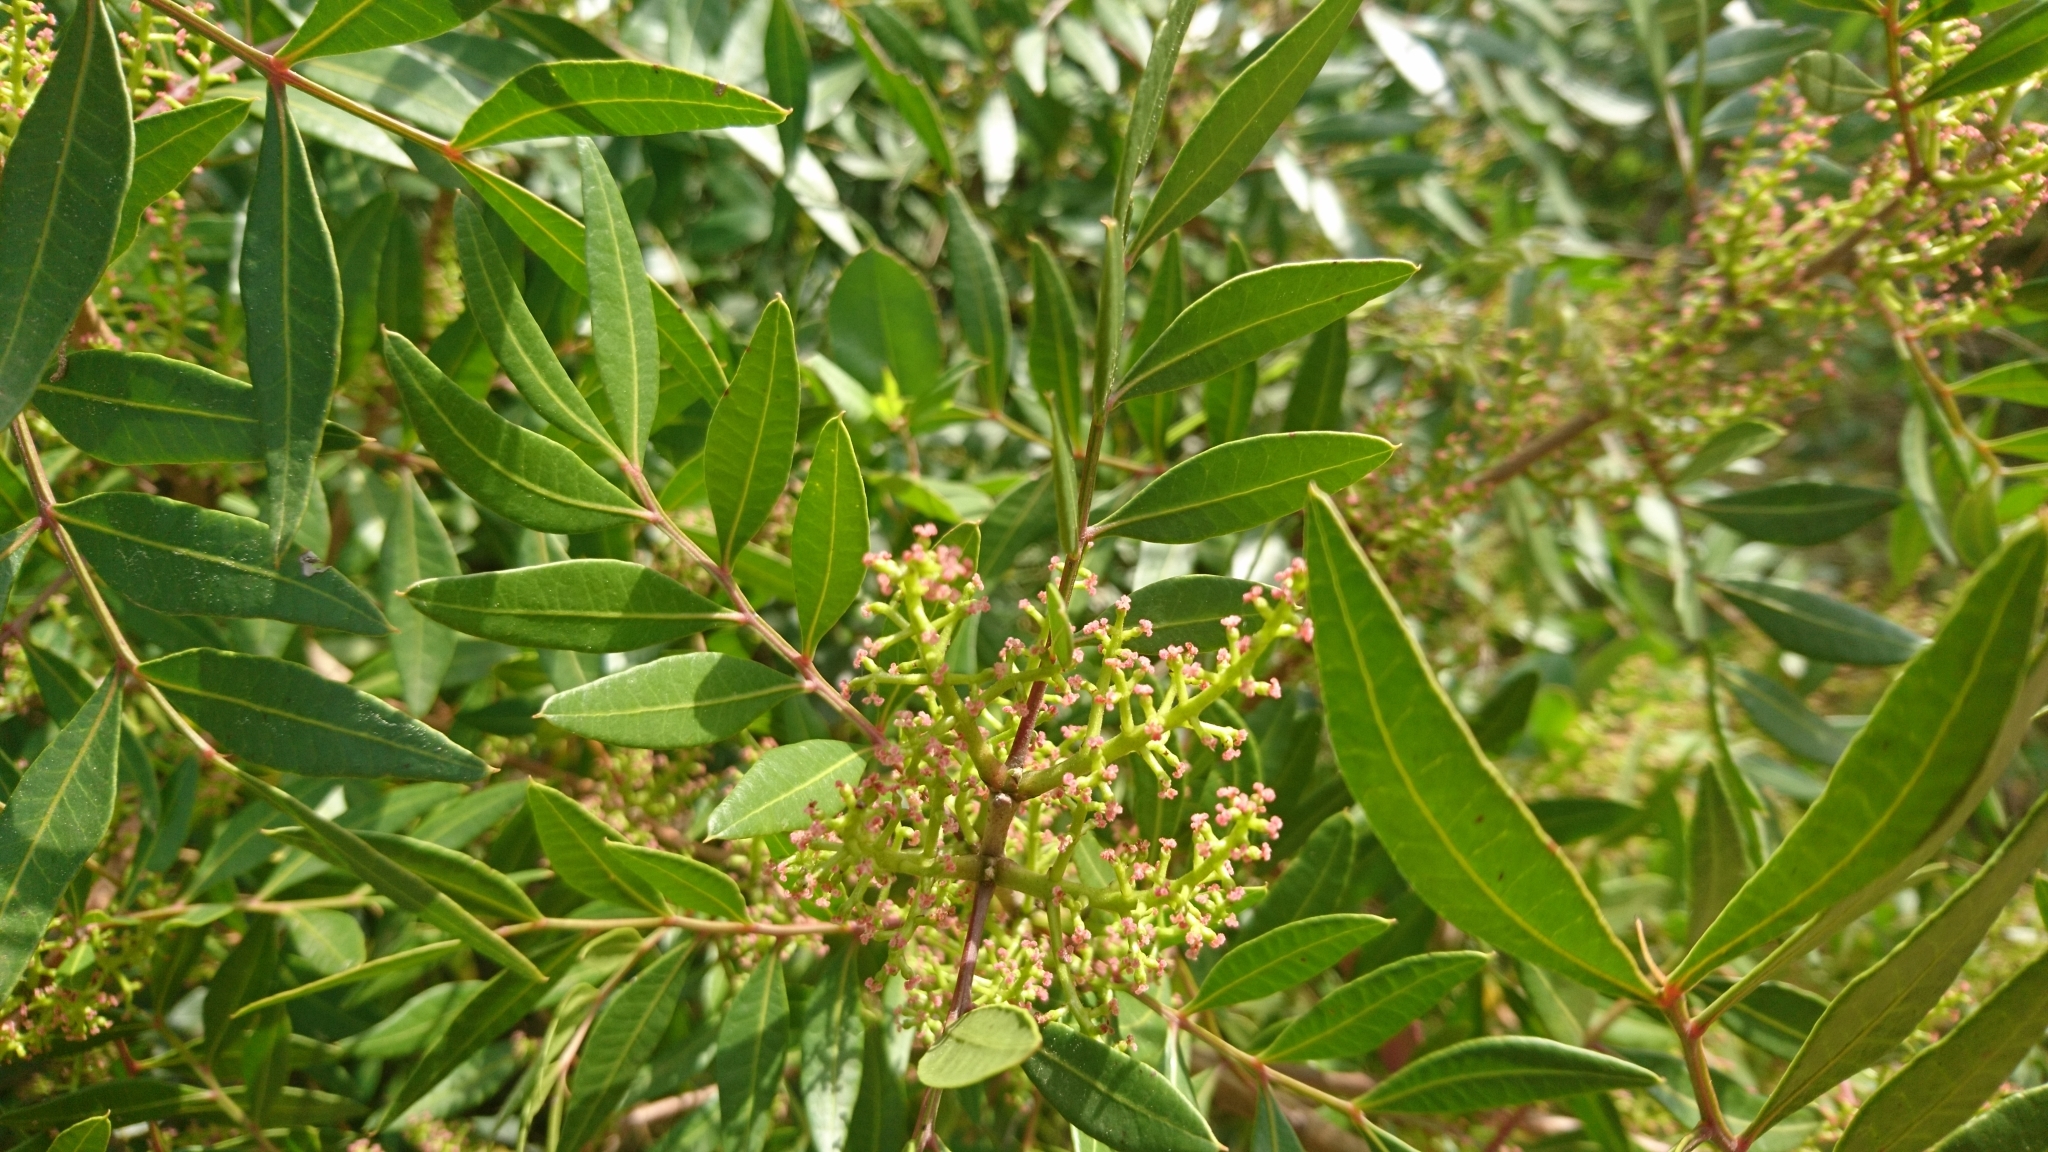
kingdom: Plantae
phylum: Tracheophyta
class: Magnoliopsida
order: Sapindales
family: Anacardiaceae
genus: Pistacia
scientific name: Pistacia lentiscus
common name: Lentisk
